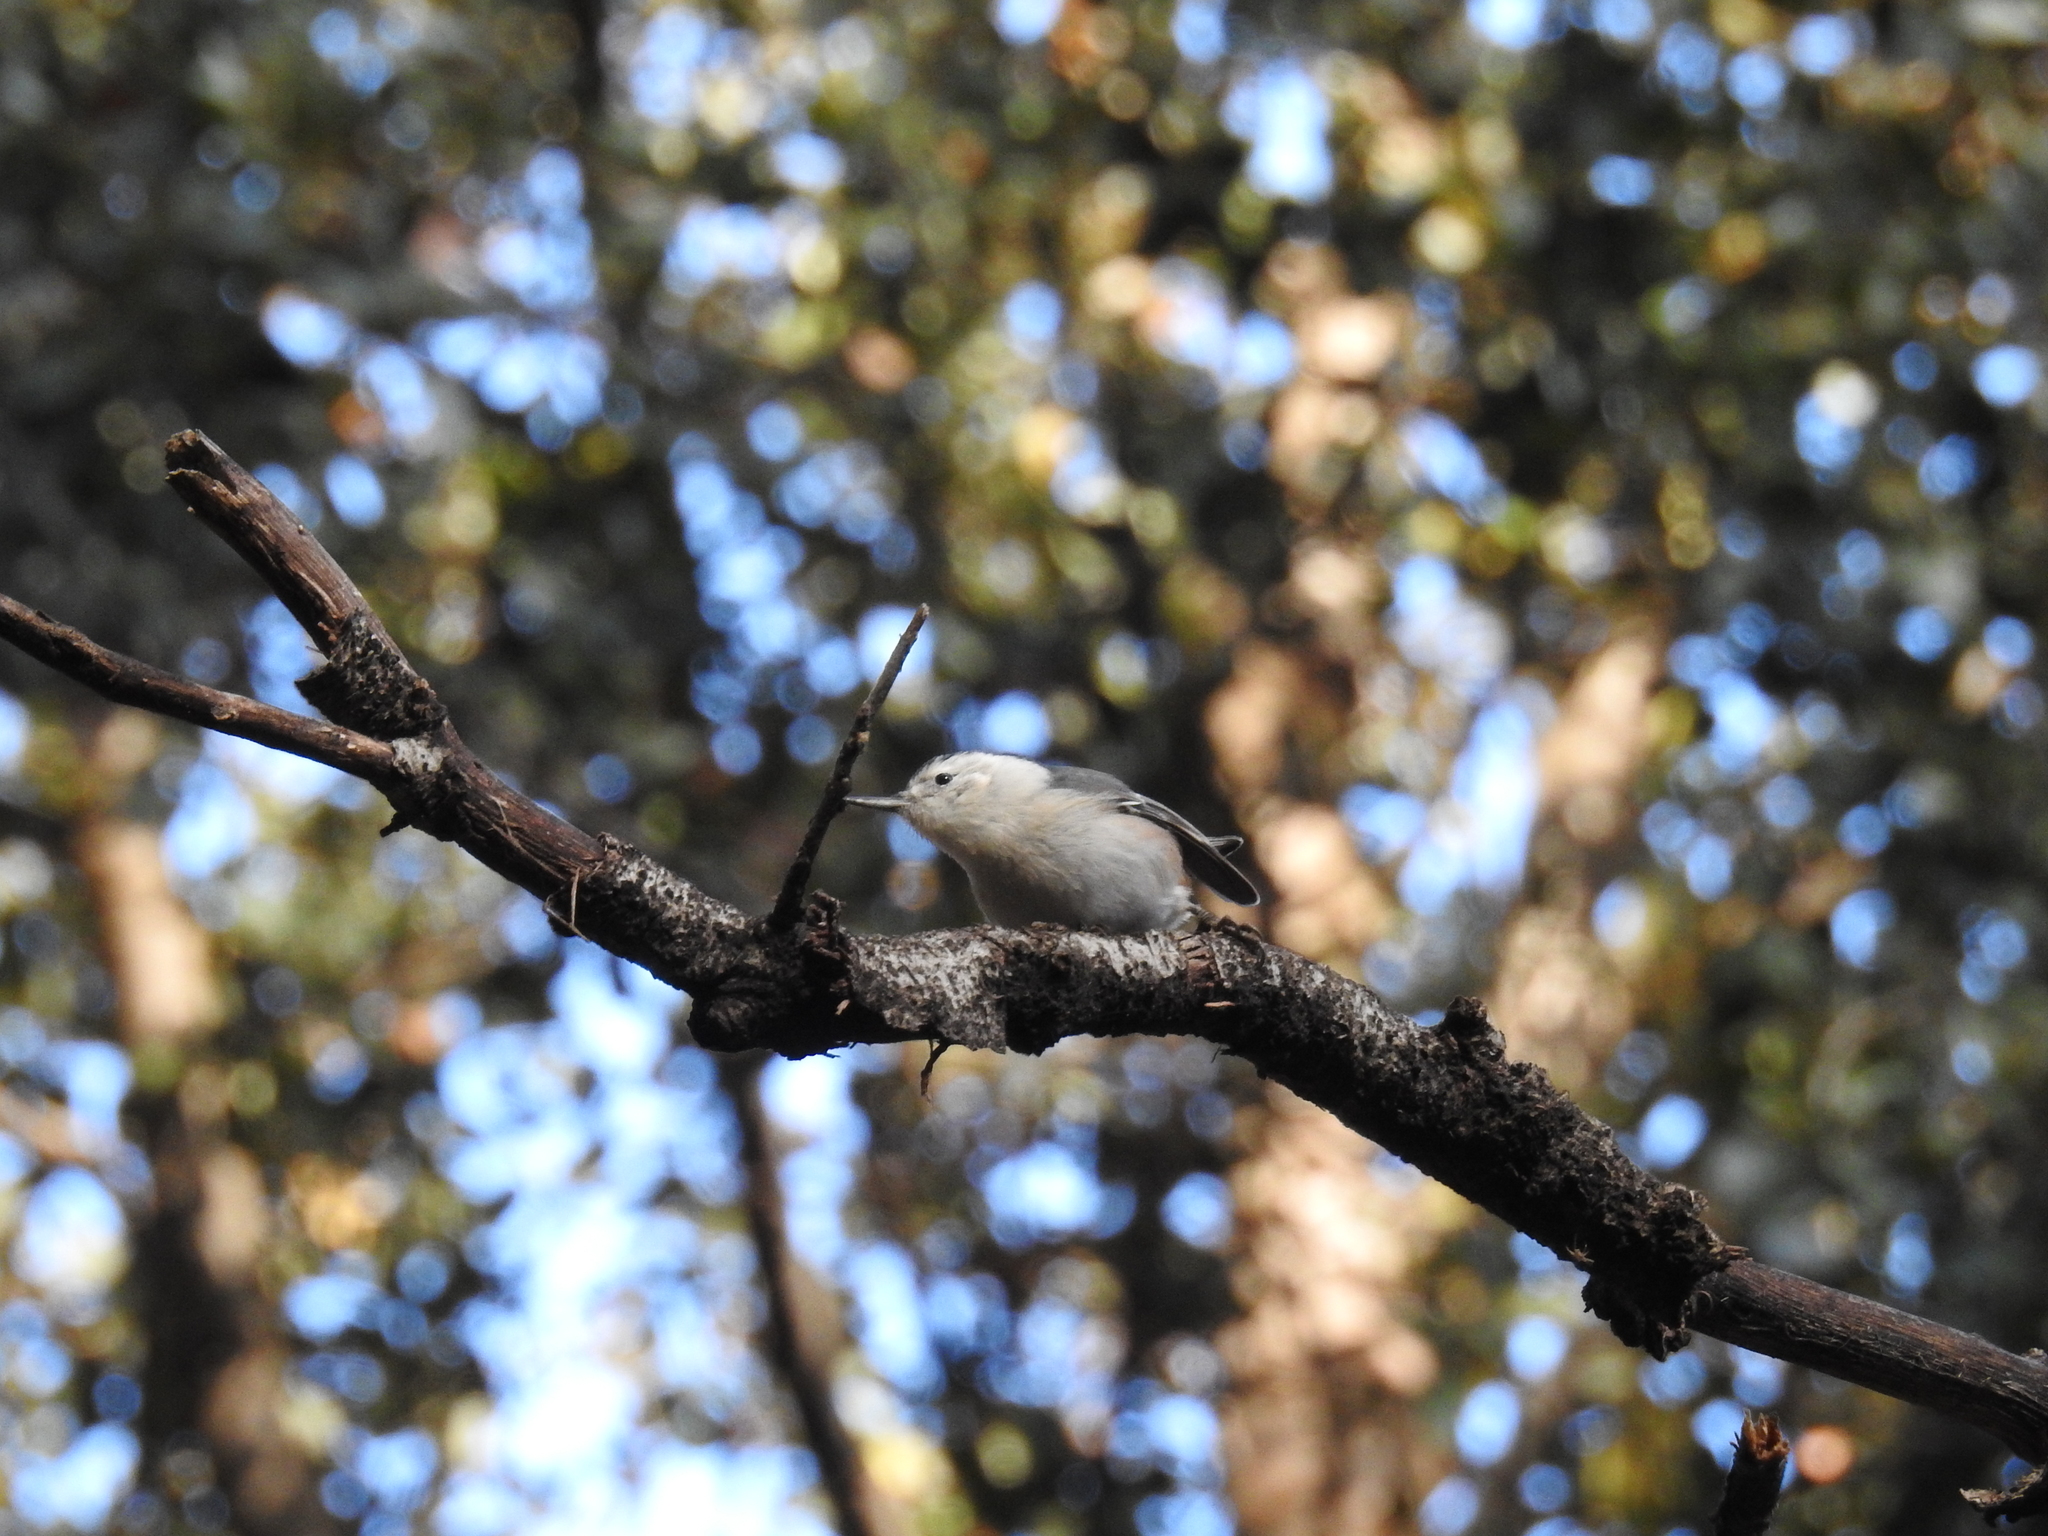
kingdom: Animalia
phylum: Chordata
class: Aves
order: Passeriformes
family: Sittidae
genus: Sitta
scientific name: Sitta carolinensis
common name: White-breasted nuthatch
